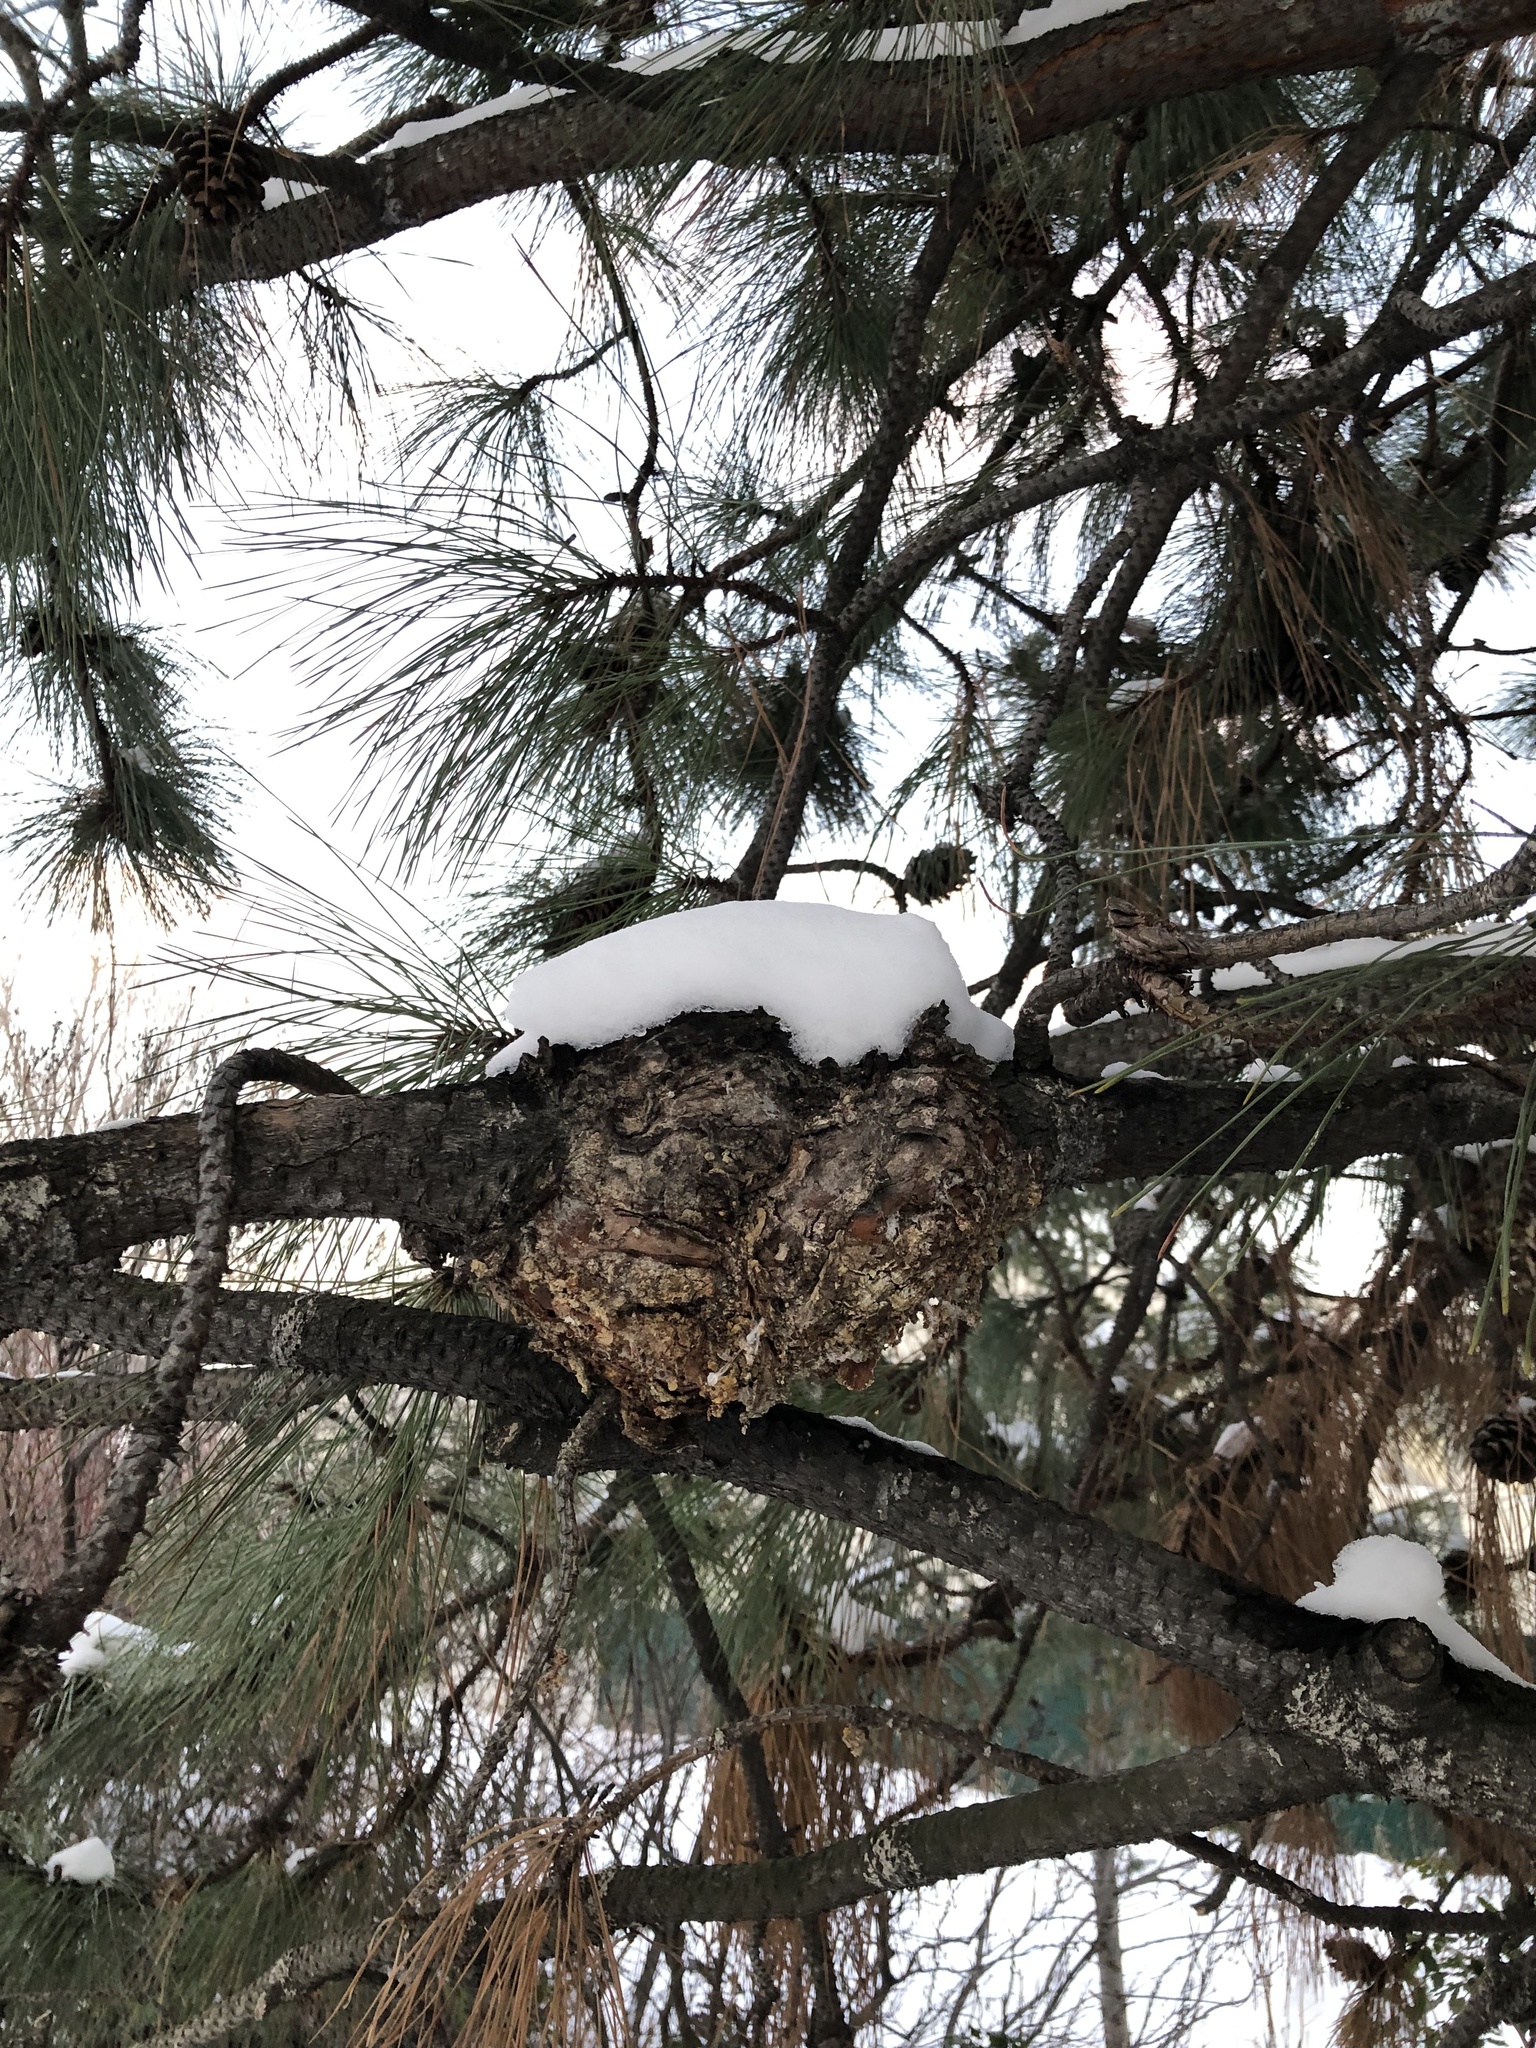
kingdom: Fungi
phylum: Basidiomycota
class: Pucciniomycetes
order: Pucciniales
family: Cronartiaceae
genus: Cronartium
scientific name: Cronartium harknessii
